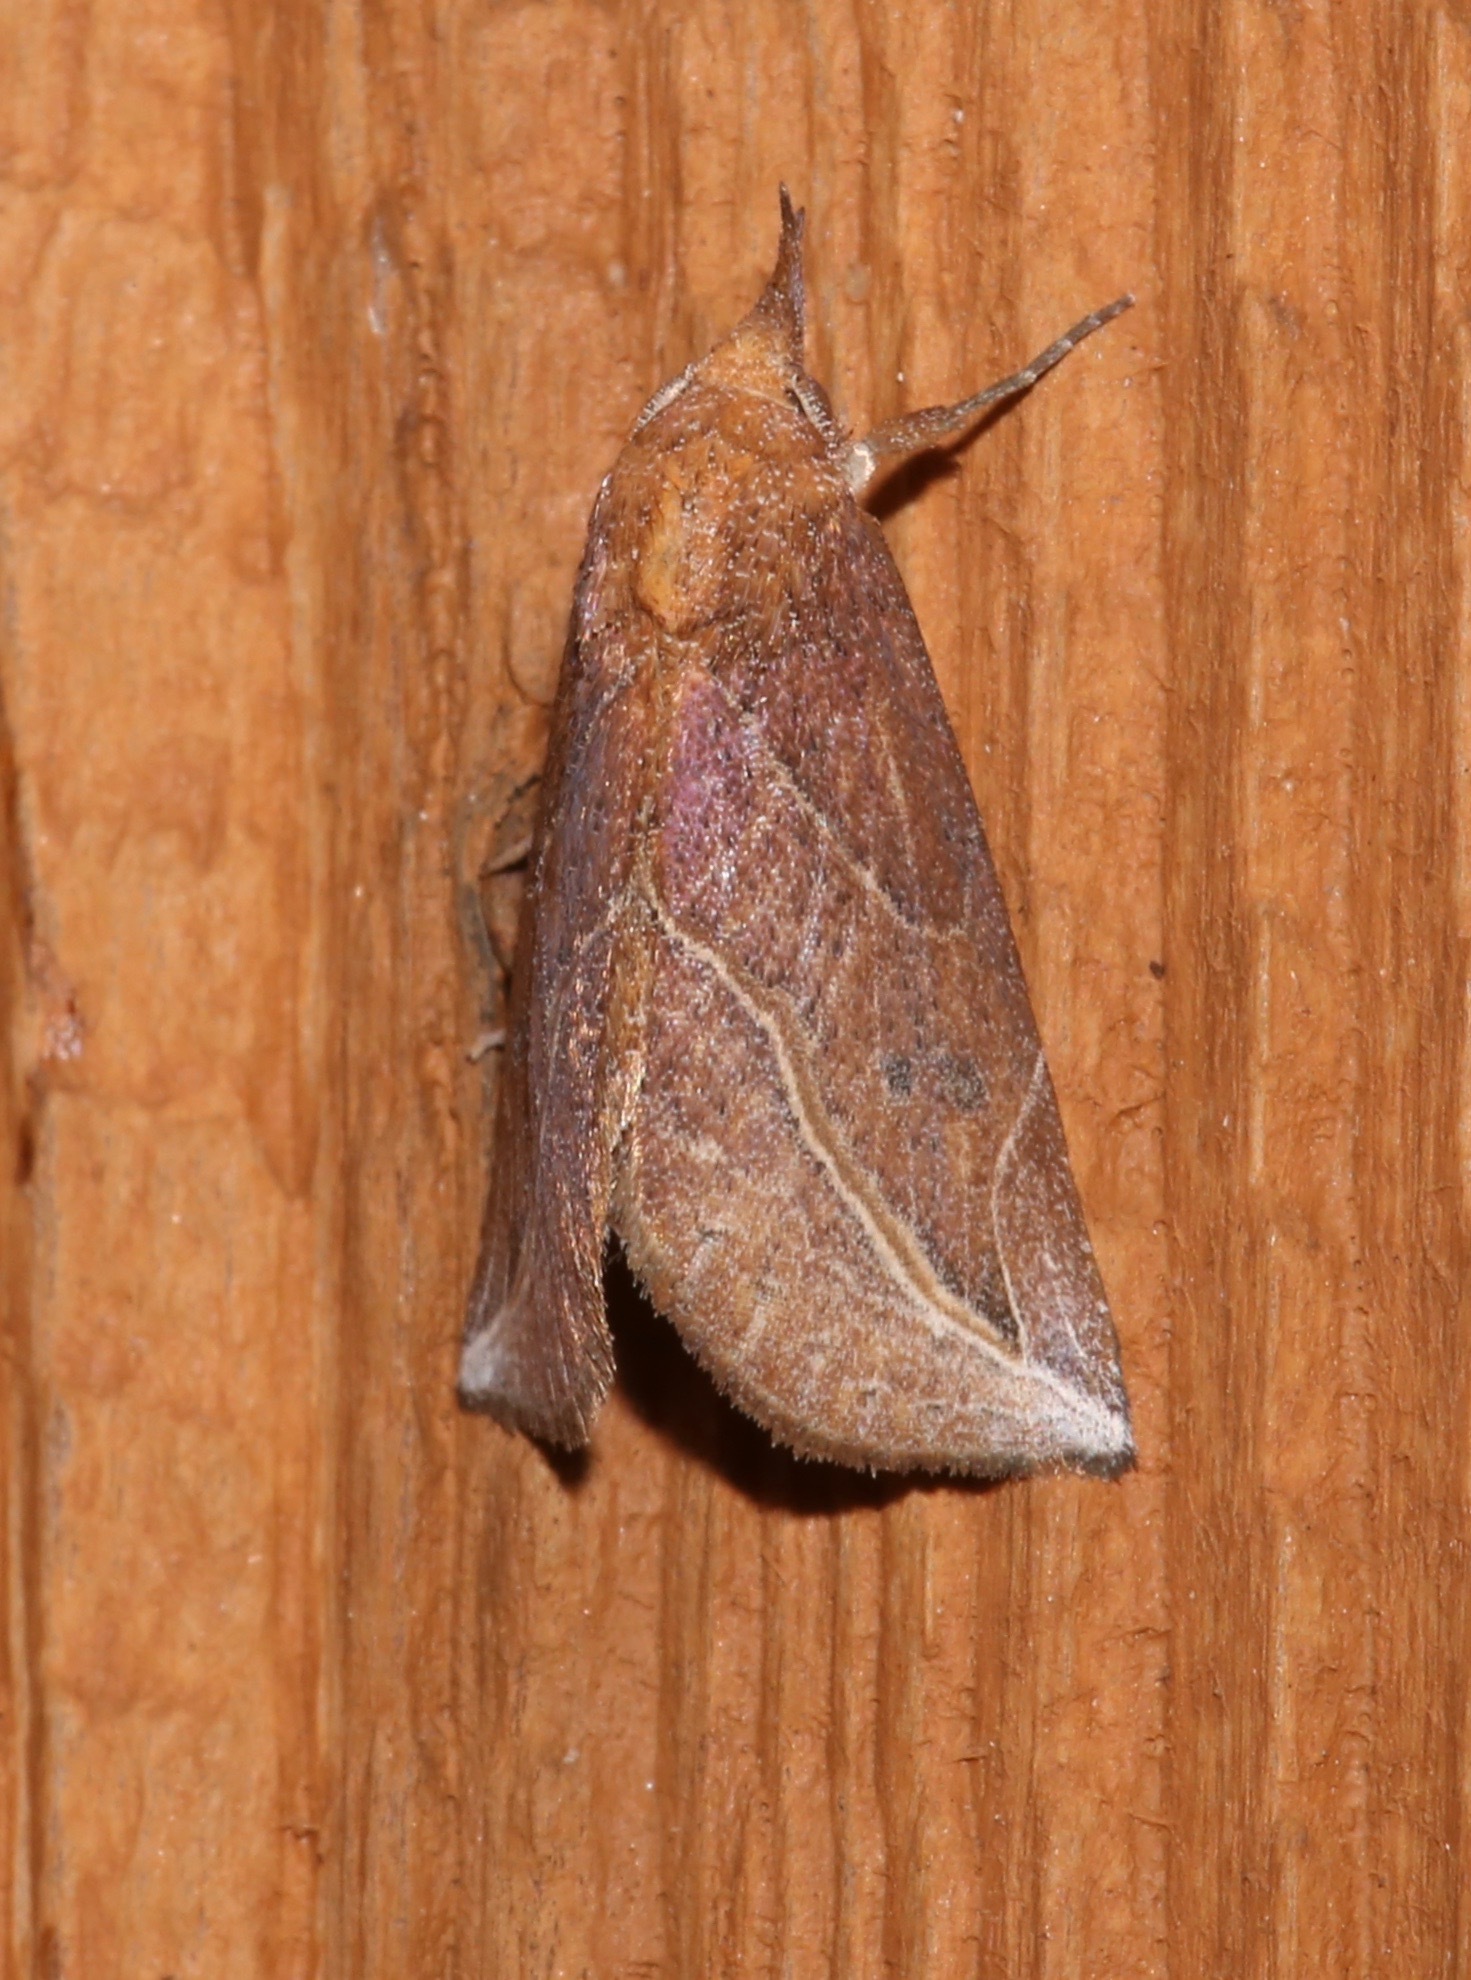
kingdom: Animalia
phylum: Arthropoda
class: Insecta
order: Lepidoptera
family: Erebidae
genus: Phyprosopus
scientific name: Phyprosopus callitrichoides
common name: Curved-lined owlet
